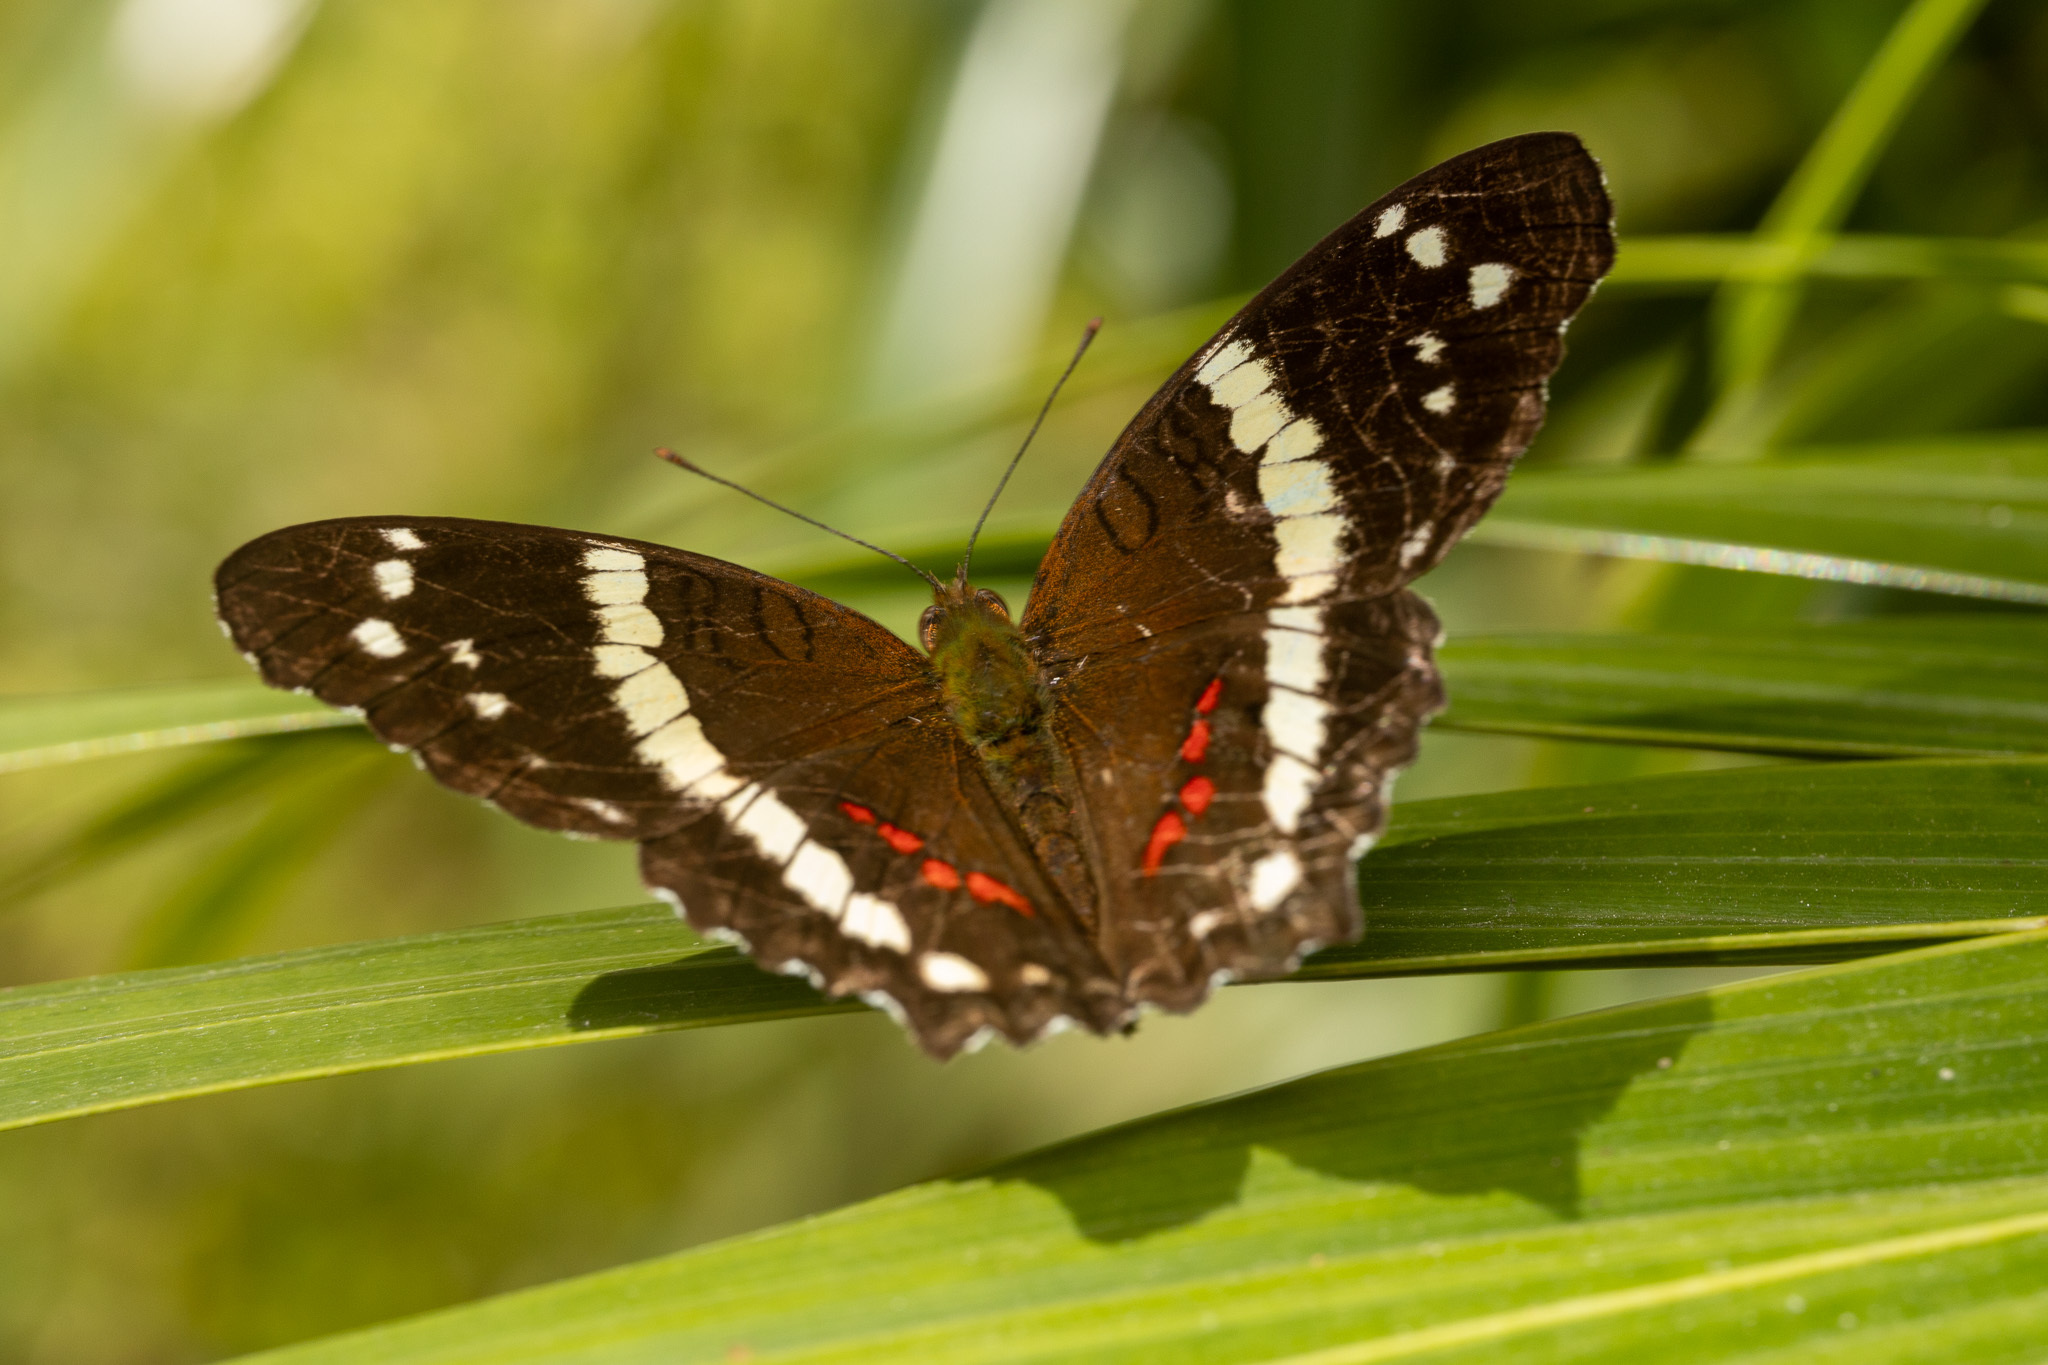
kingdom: Animalia
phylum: Arthropoda
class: Insecta
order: Lepidoptera
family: Nymphalidae
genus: Anartia
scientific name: Anartia fatima
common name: Banded peacock
